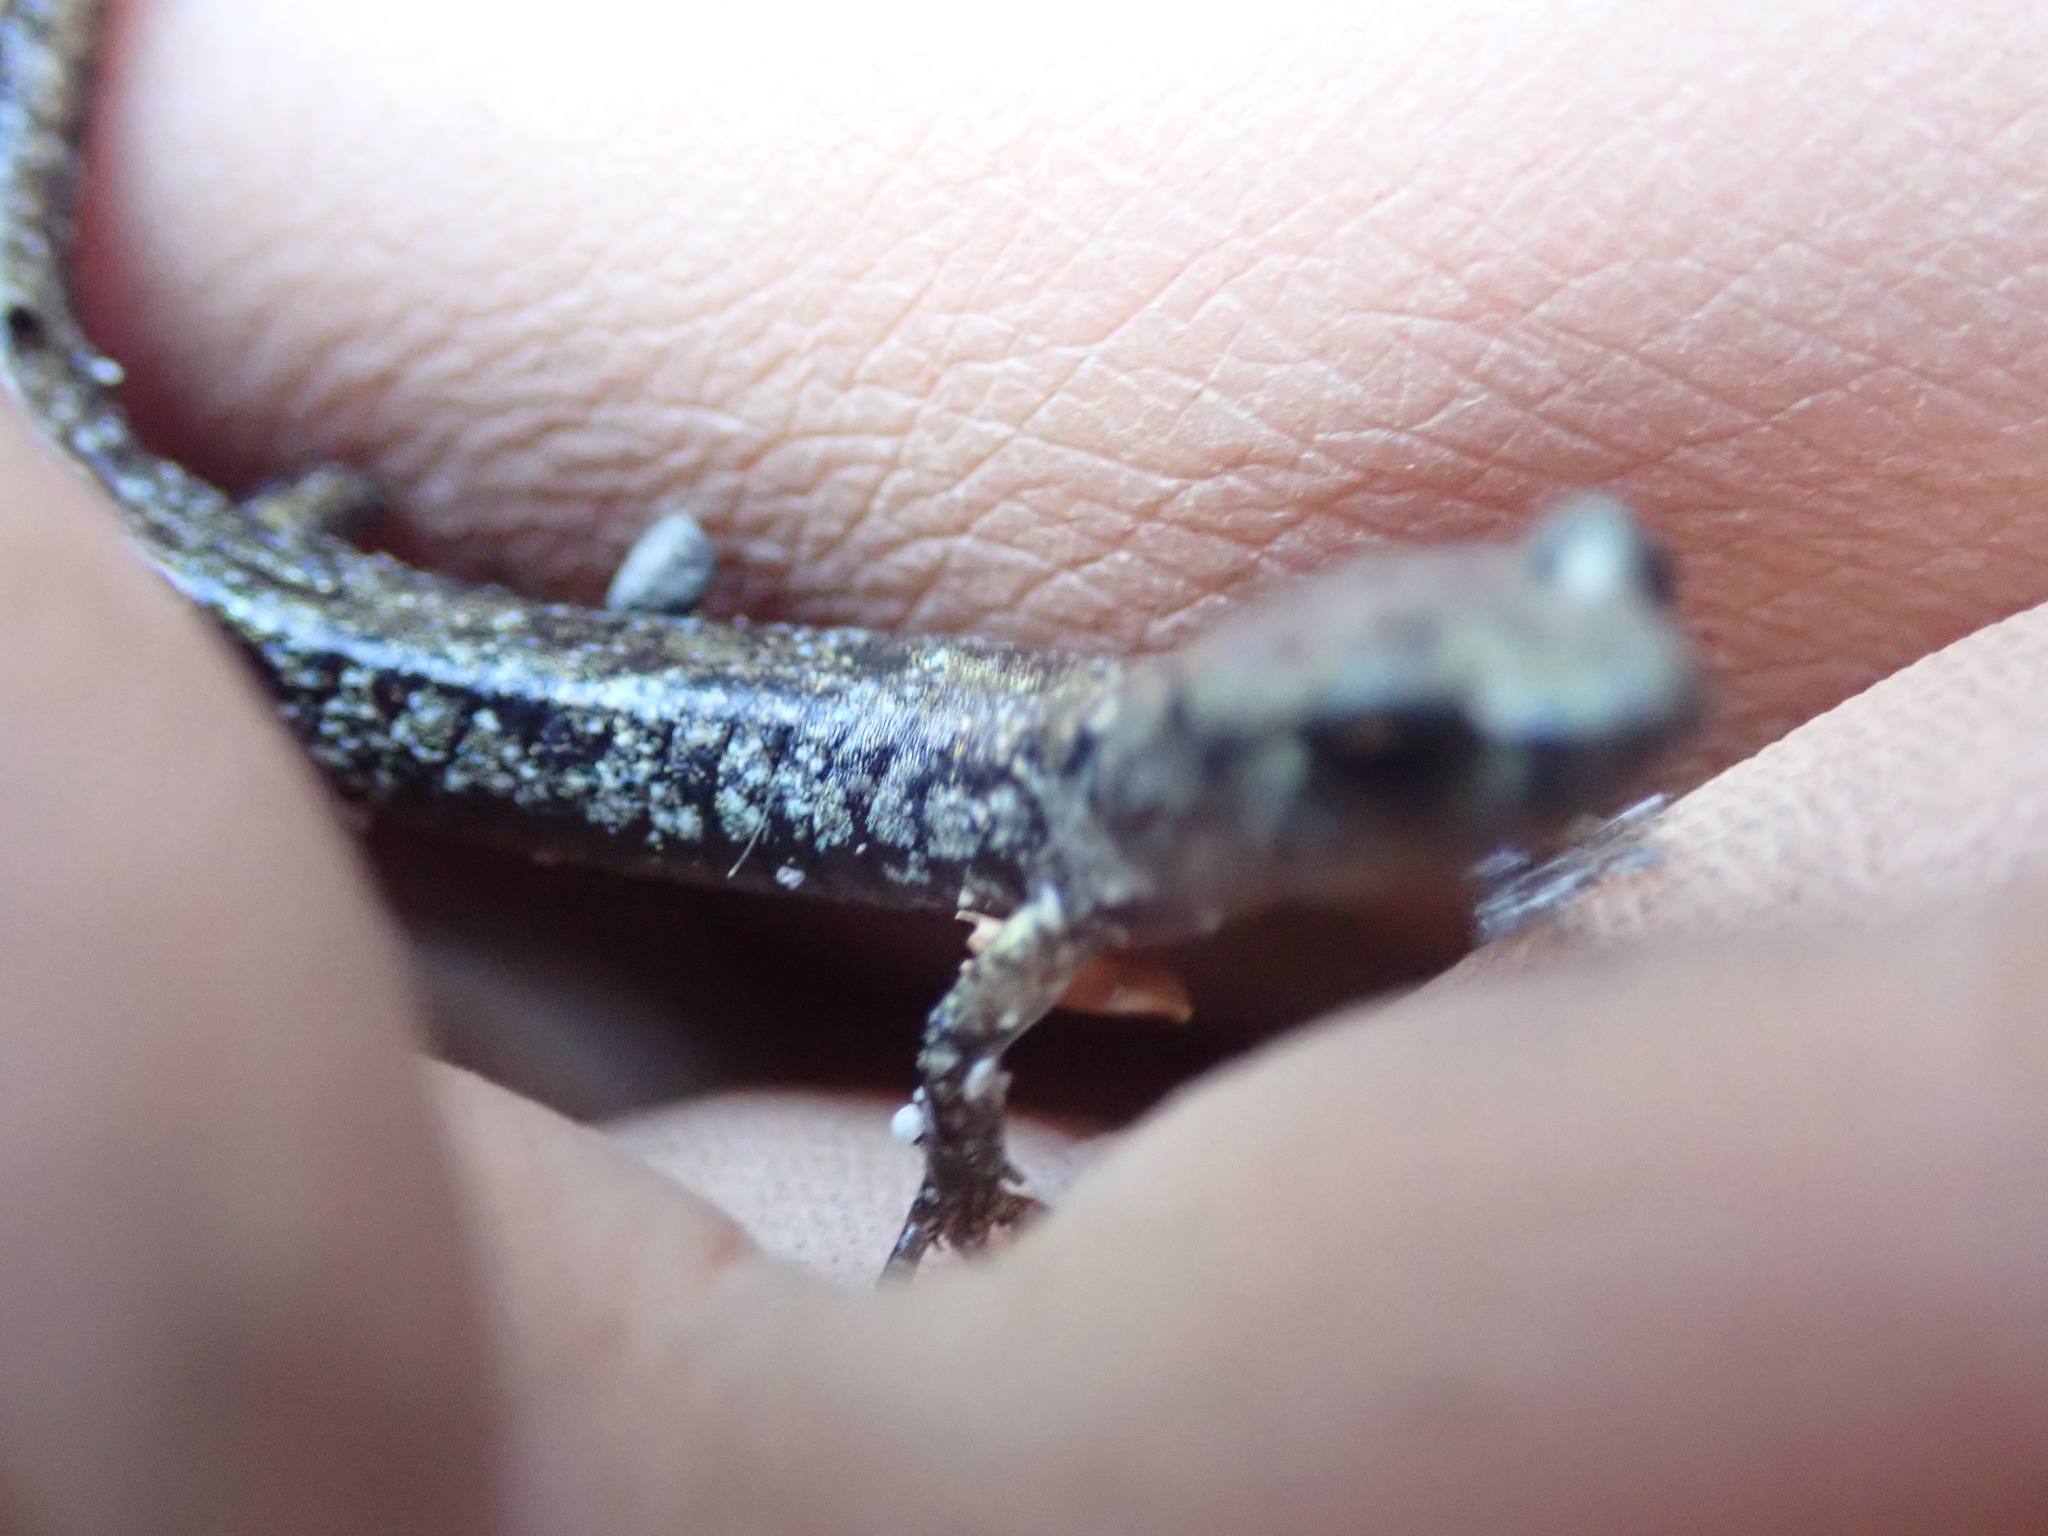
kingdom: Animalia
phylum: Chordata
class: Amphibia
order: Caudata
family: Plethodontidae
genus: Aneides
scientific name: Aneides vagrans
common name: Wandering salamander
